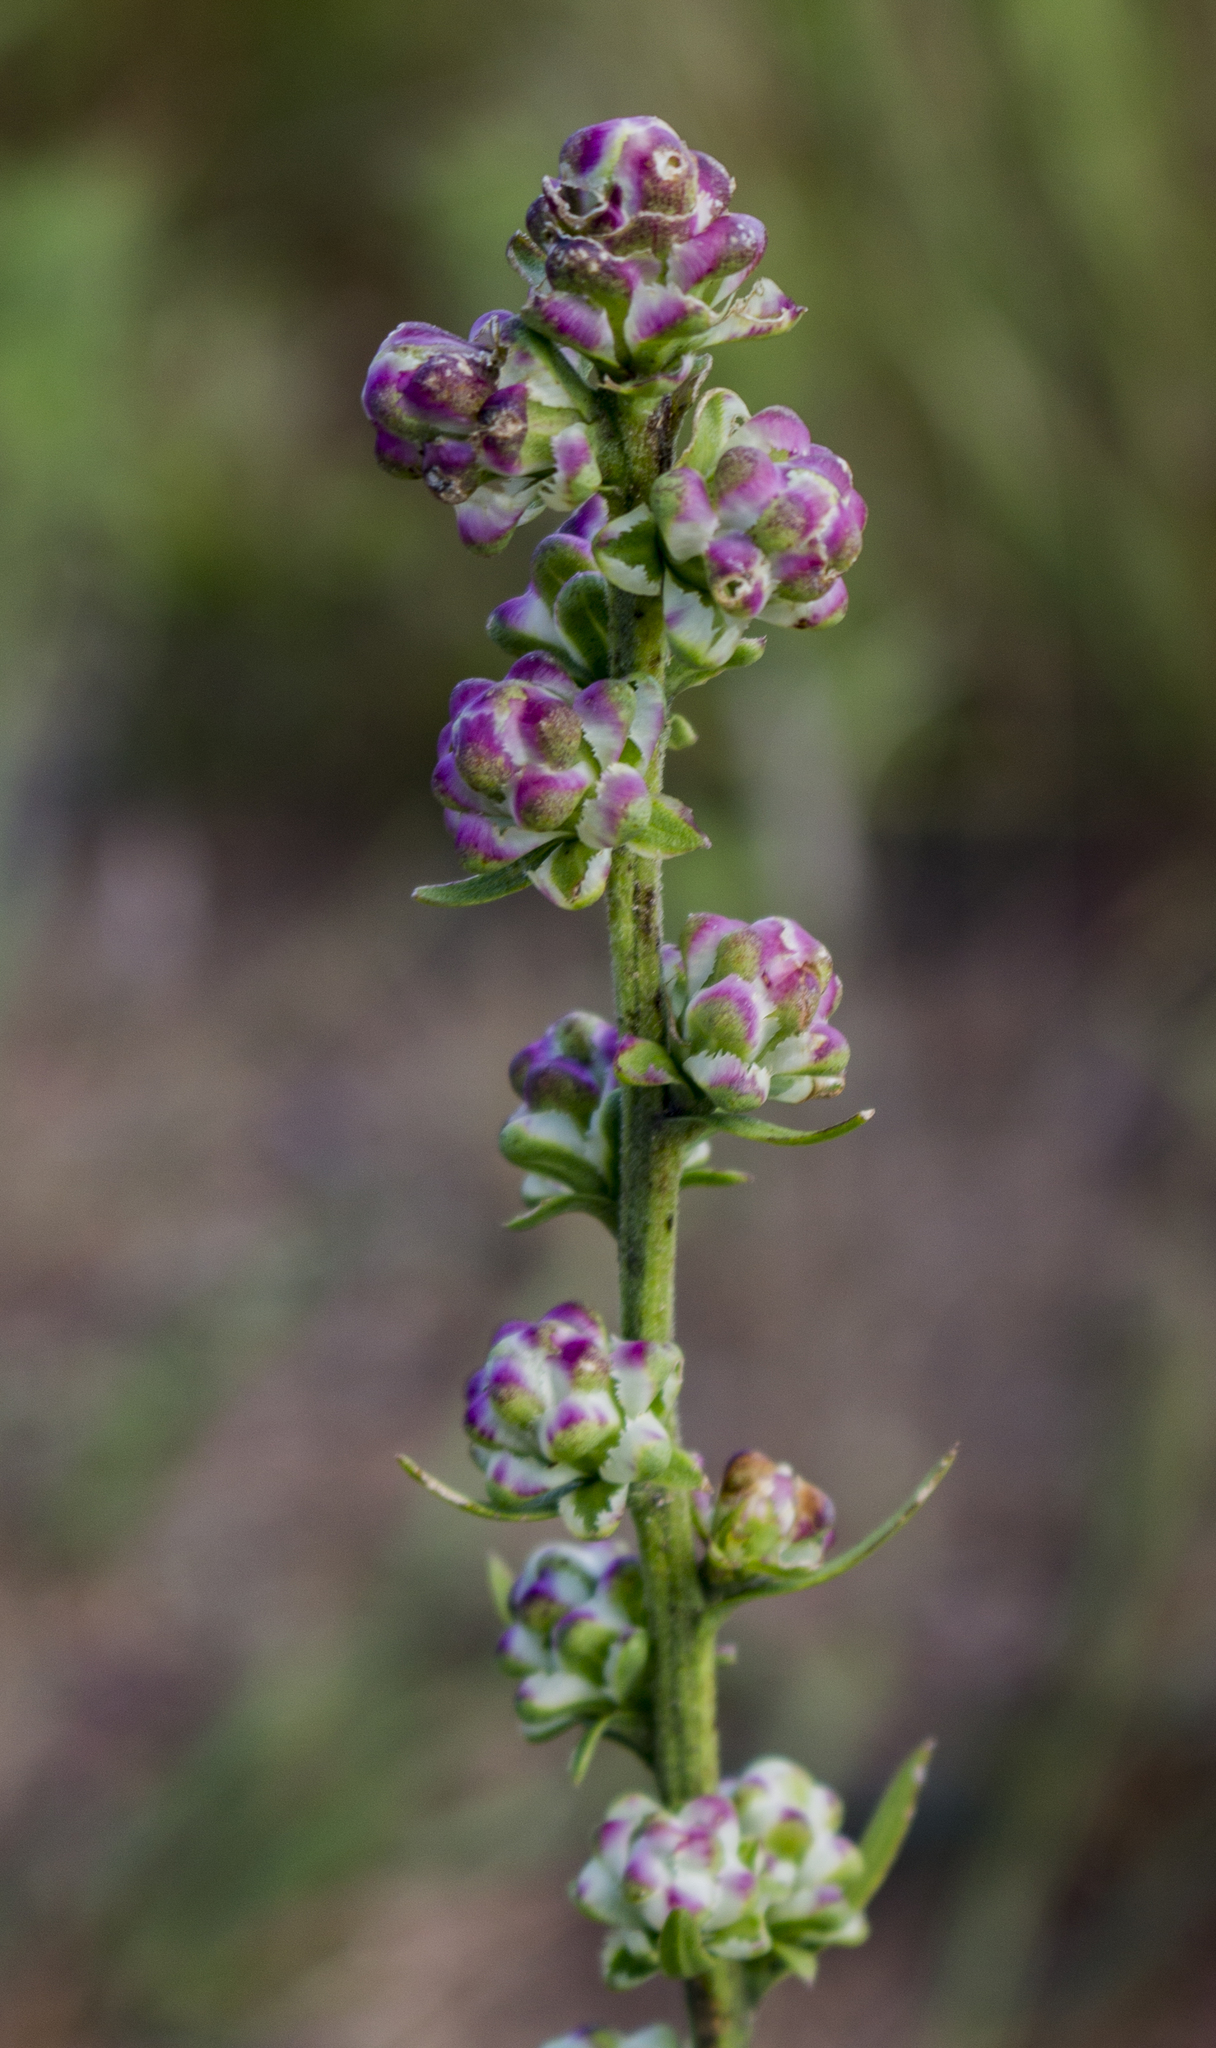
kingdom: Plantae
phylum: Tracheophyta
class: Magnoliopsida
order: Asterales
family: Asteraceae
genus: Liatris
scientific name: Liatris aspera
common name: Lacerate blazing-star
